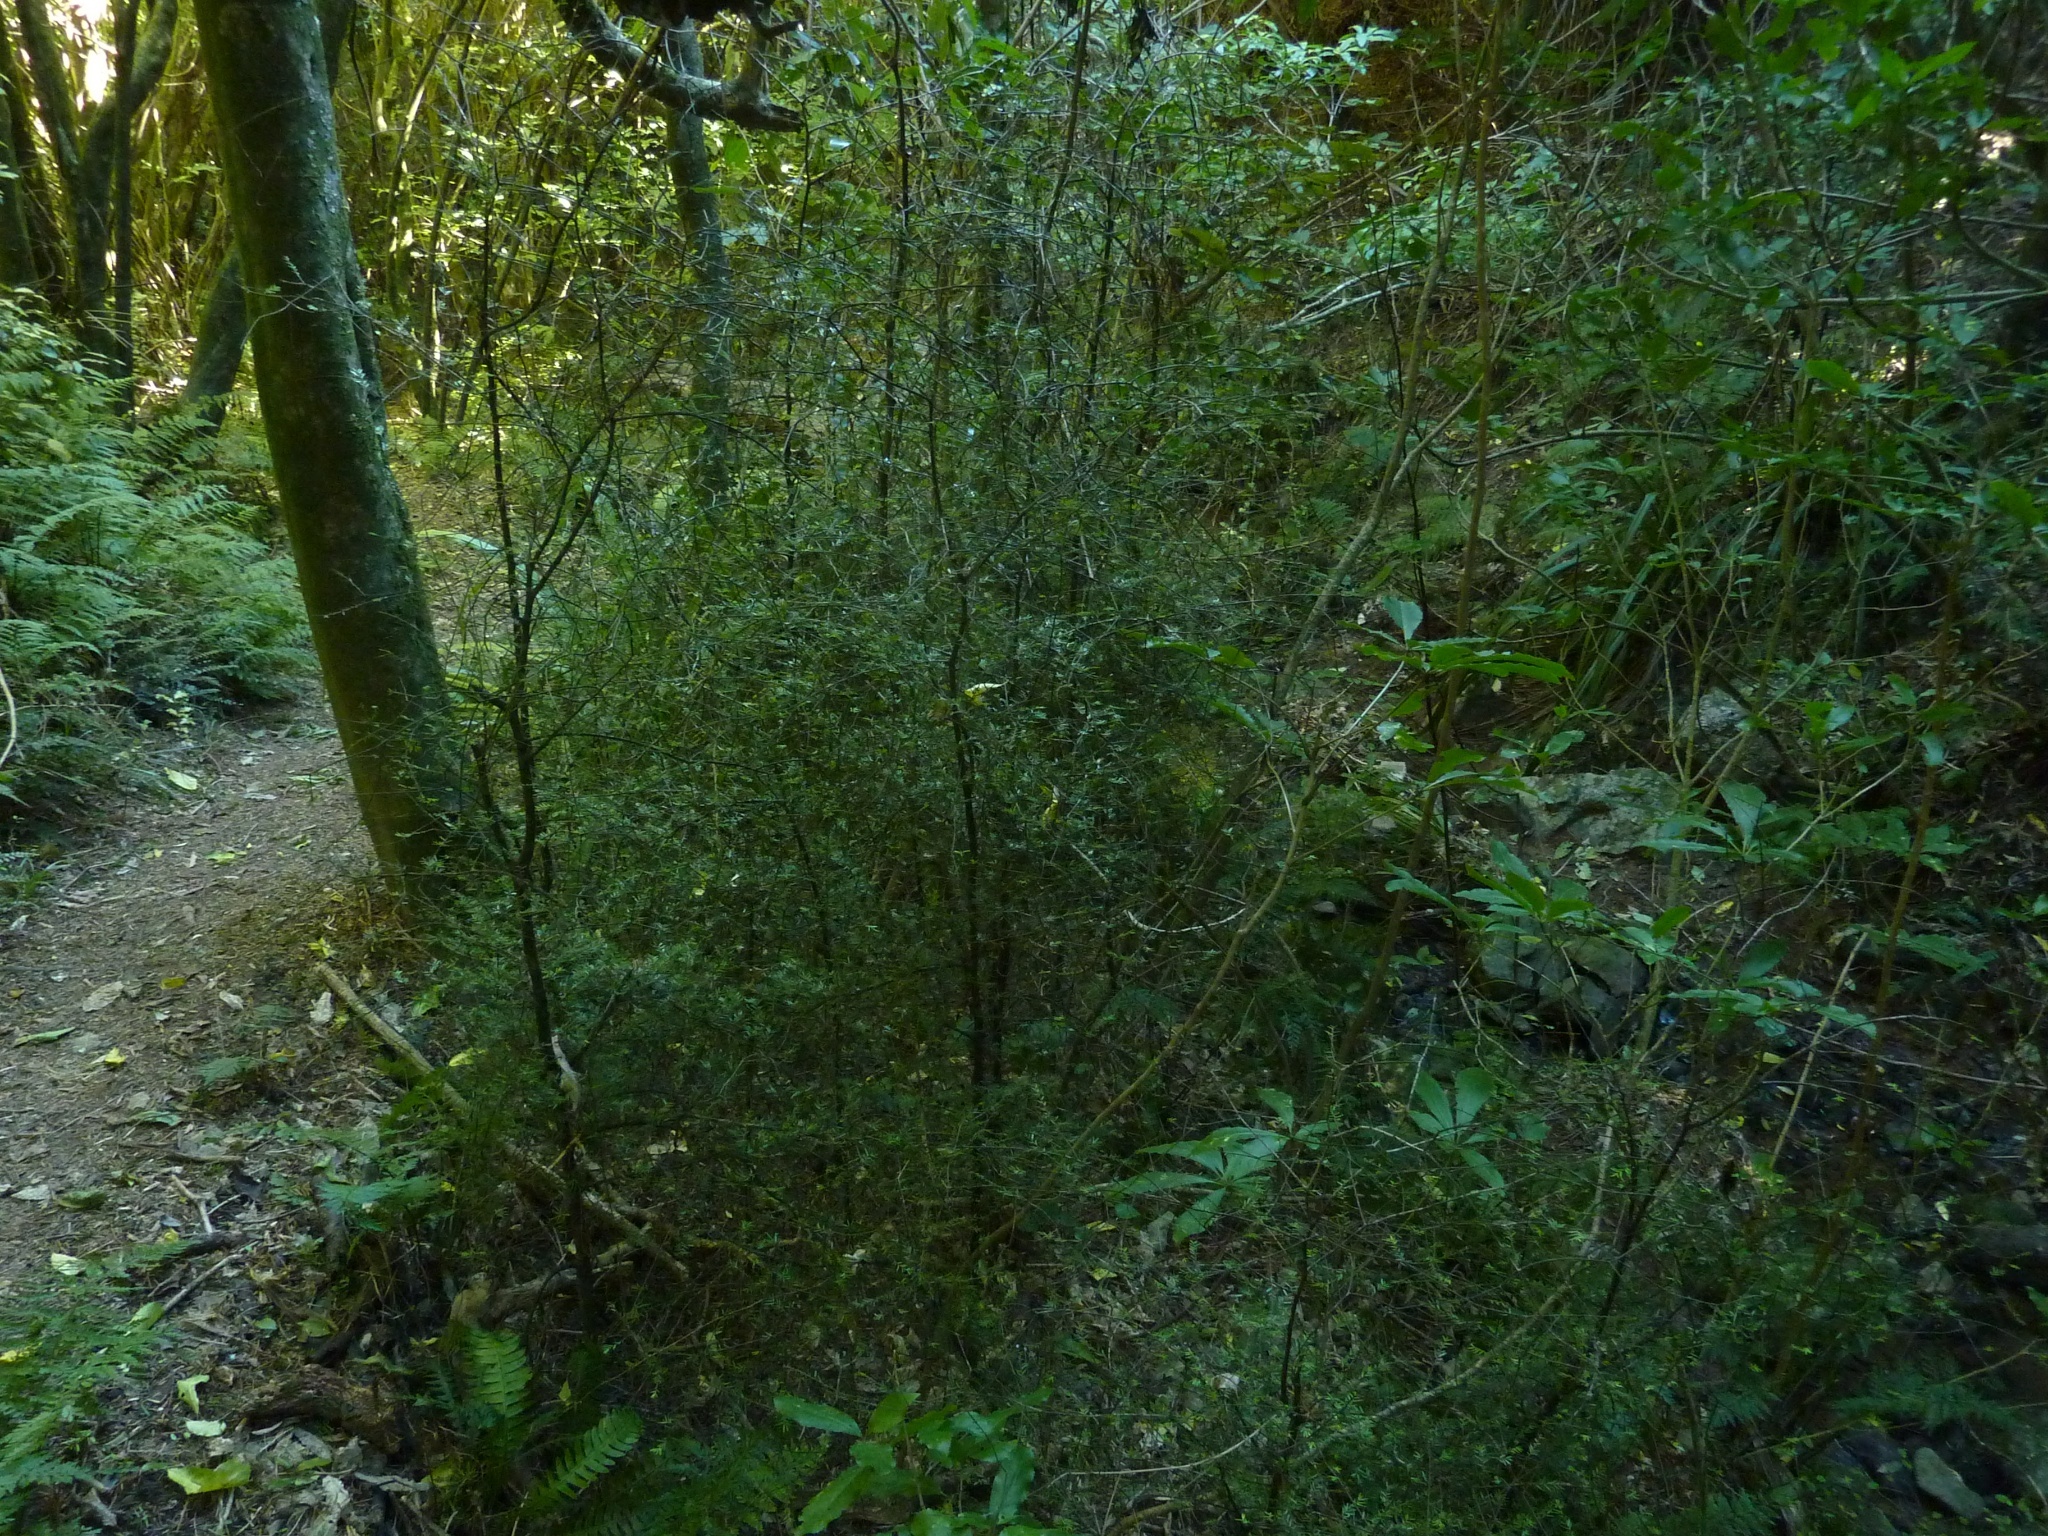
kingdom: Plantae
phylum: Tracheophyta
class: Pinopsida
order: Pinales
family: Podocarpaceae
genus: Prumnopitys
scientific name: Prumnopitys taxifolia
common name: Matai
